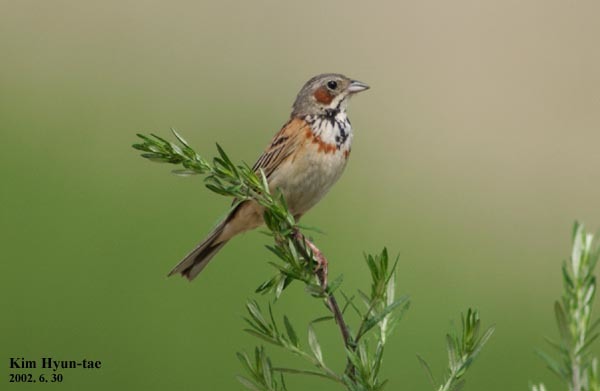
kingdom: Animalia
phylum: Chordata
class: Aves
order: Passeriformes
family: Emberizidae
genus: Emberiza
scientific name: Emberiza fucata
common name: Chestnut-eared bunting
